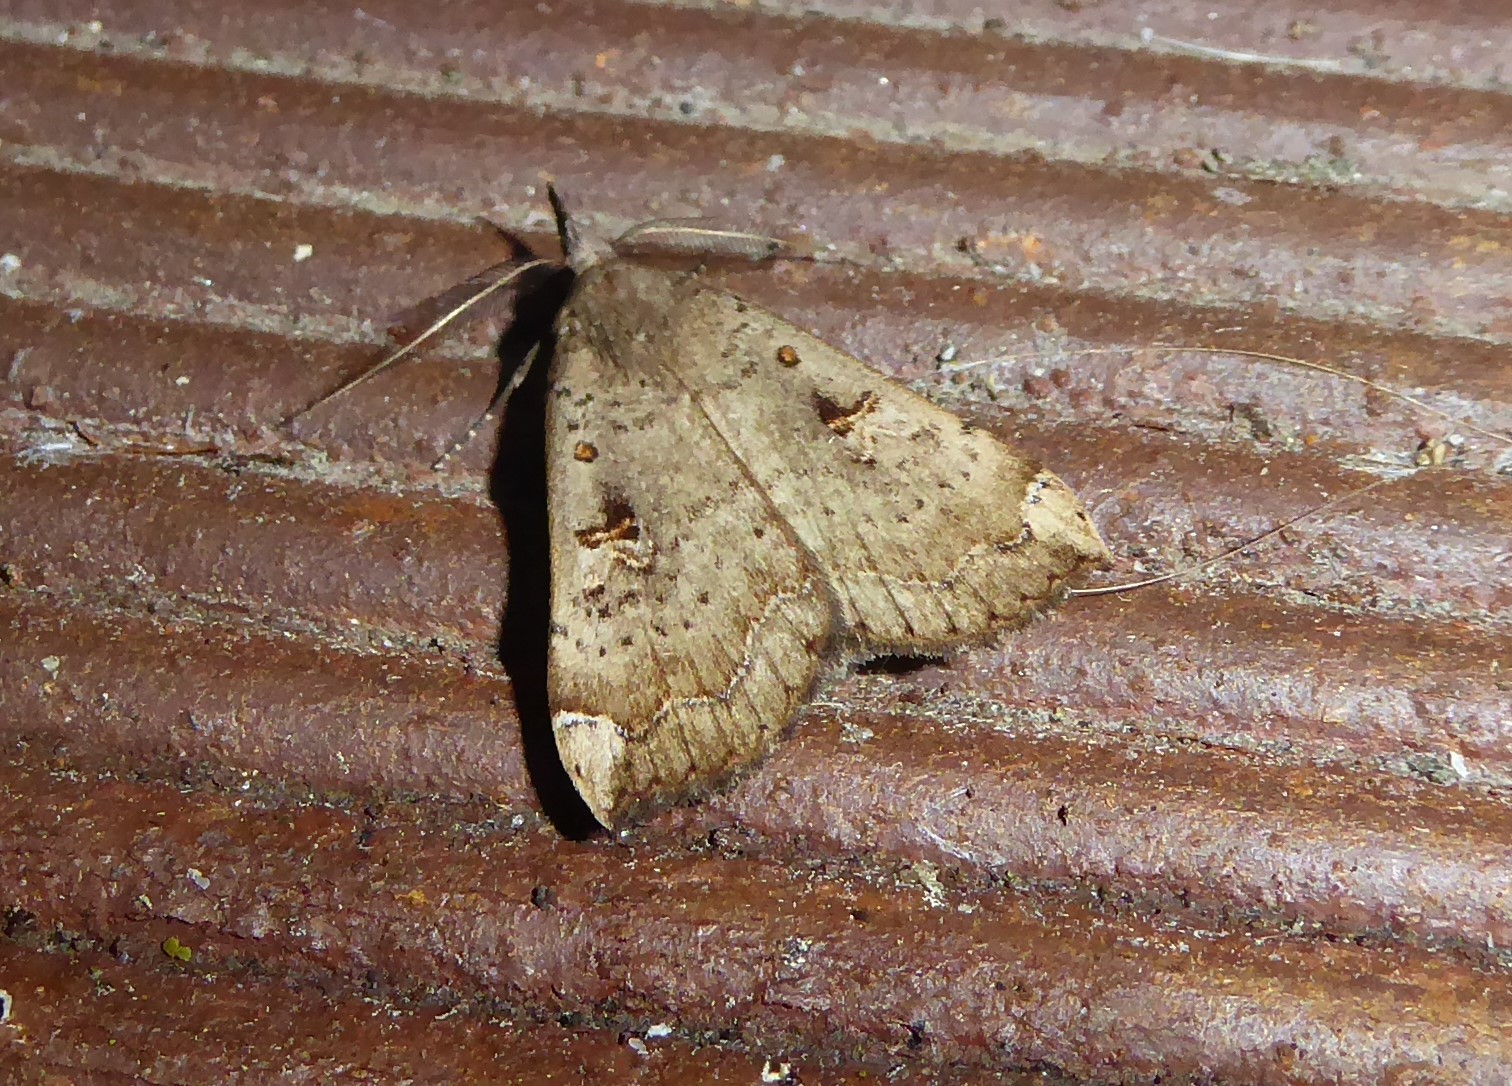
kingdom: Animalia
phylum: Arthropoda
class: Insecta
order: Lepidoptera
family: Erebidae
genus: Rhapsa
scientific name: Rhapsa scotosialis
